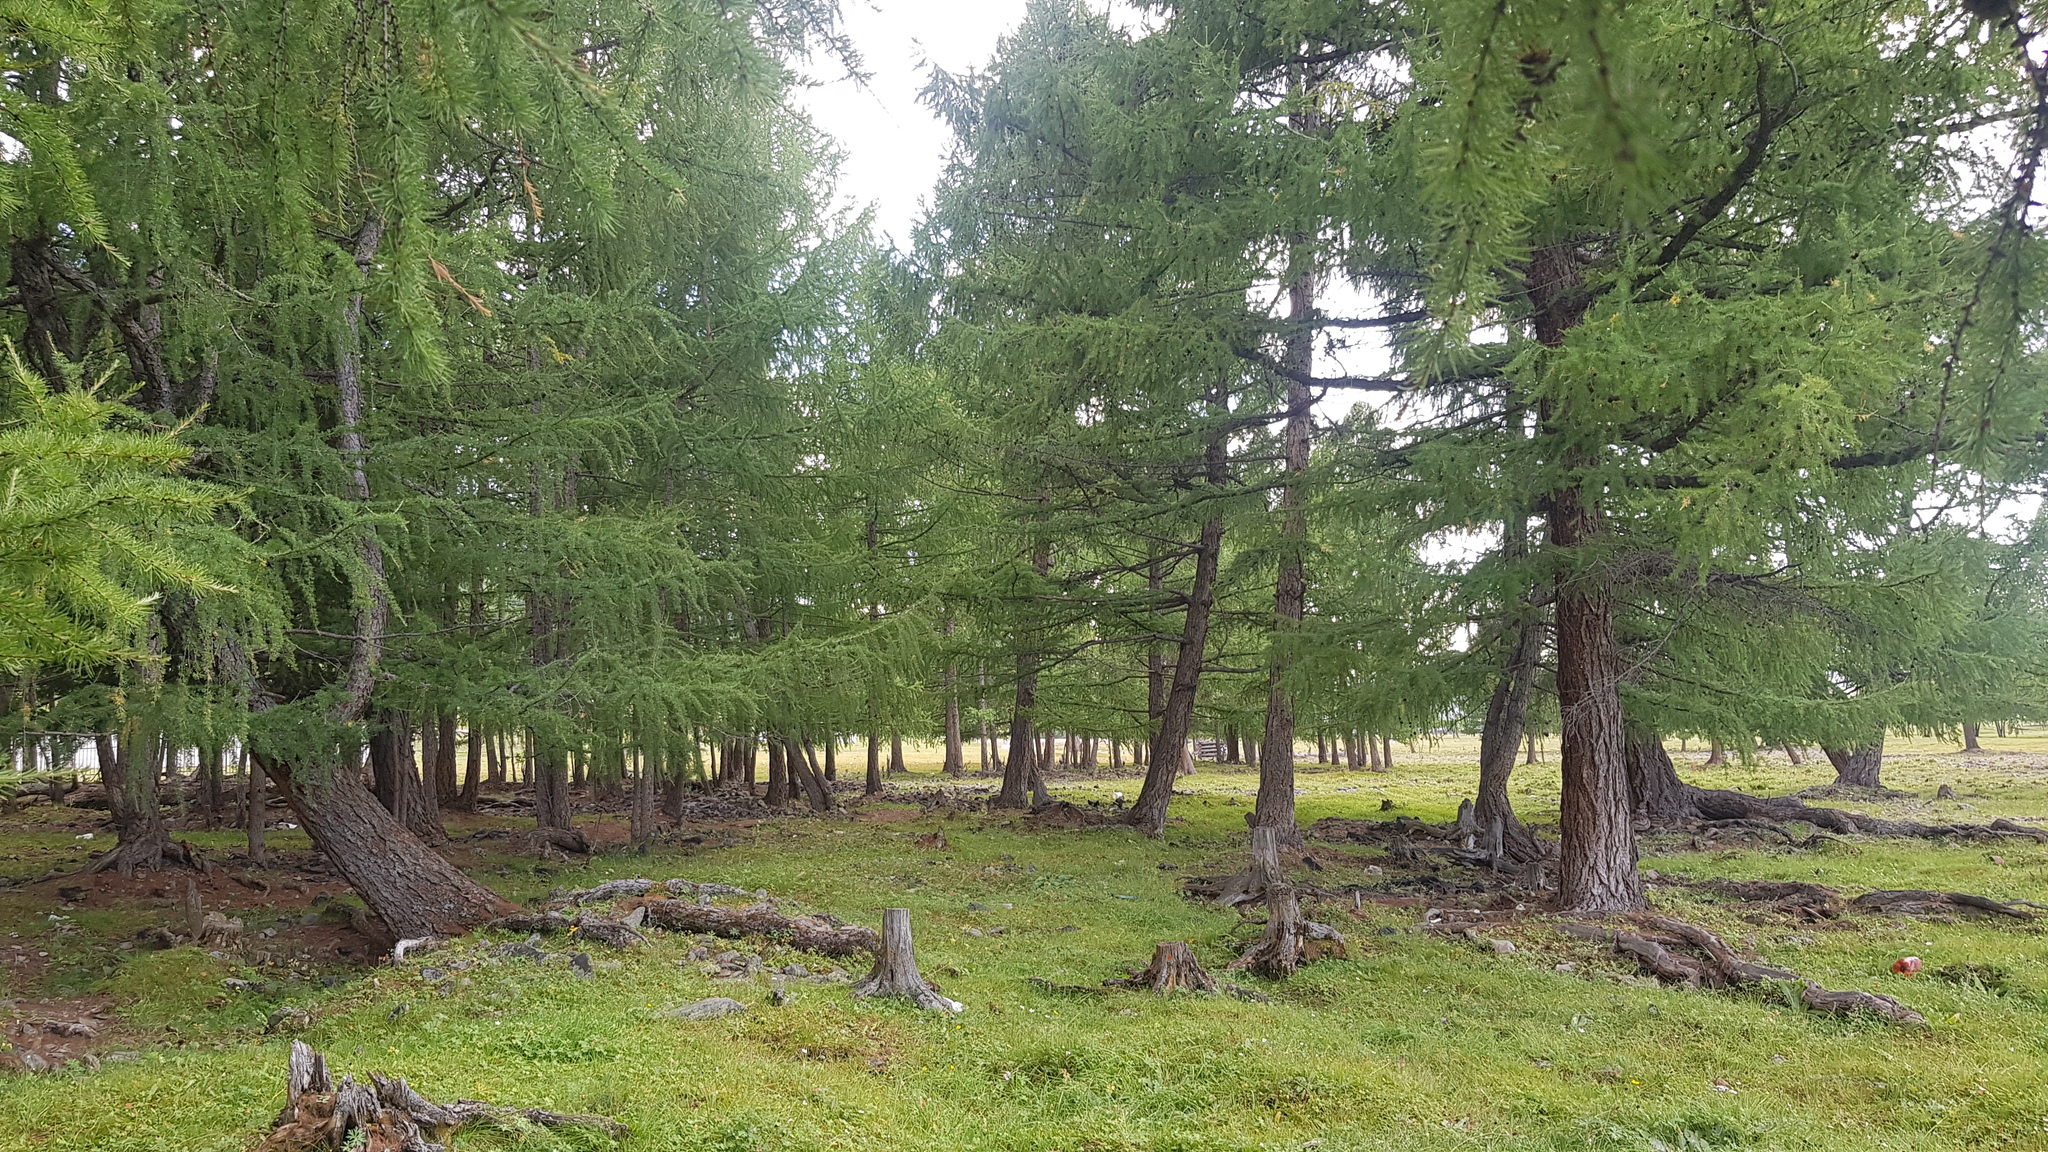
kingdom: Plantae
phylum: Tracheophyta
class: Pinopsida
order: Pinales
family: Pinaceae
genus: Larix
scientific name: Larix sibirica
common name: Siberian larch
